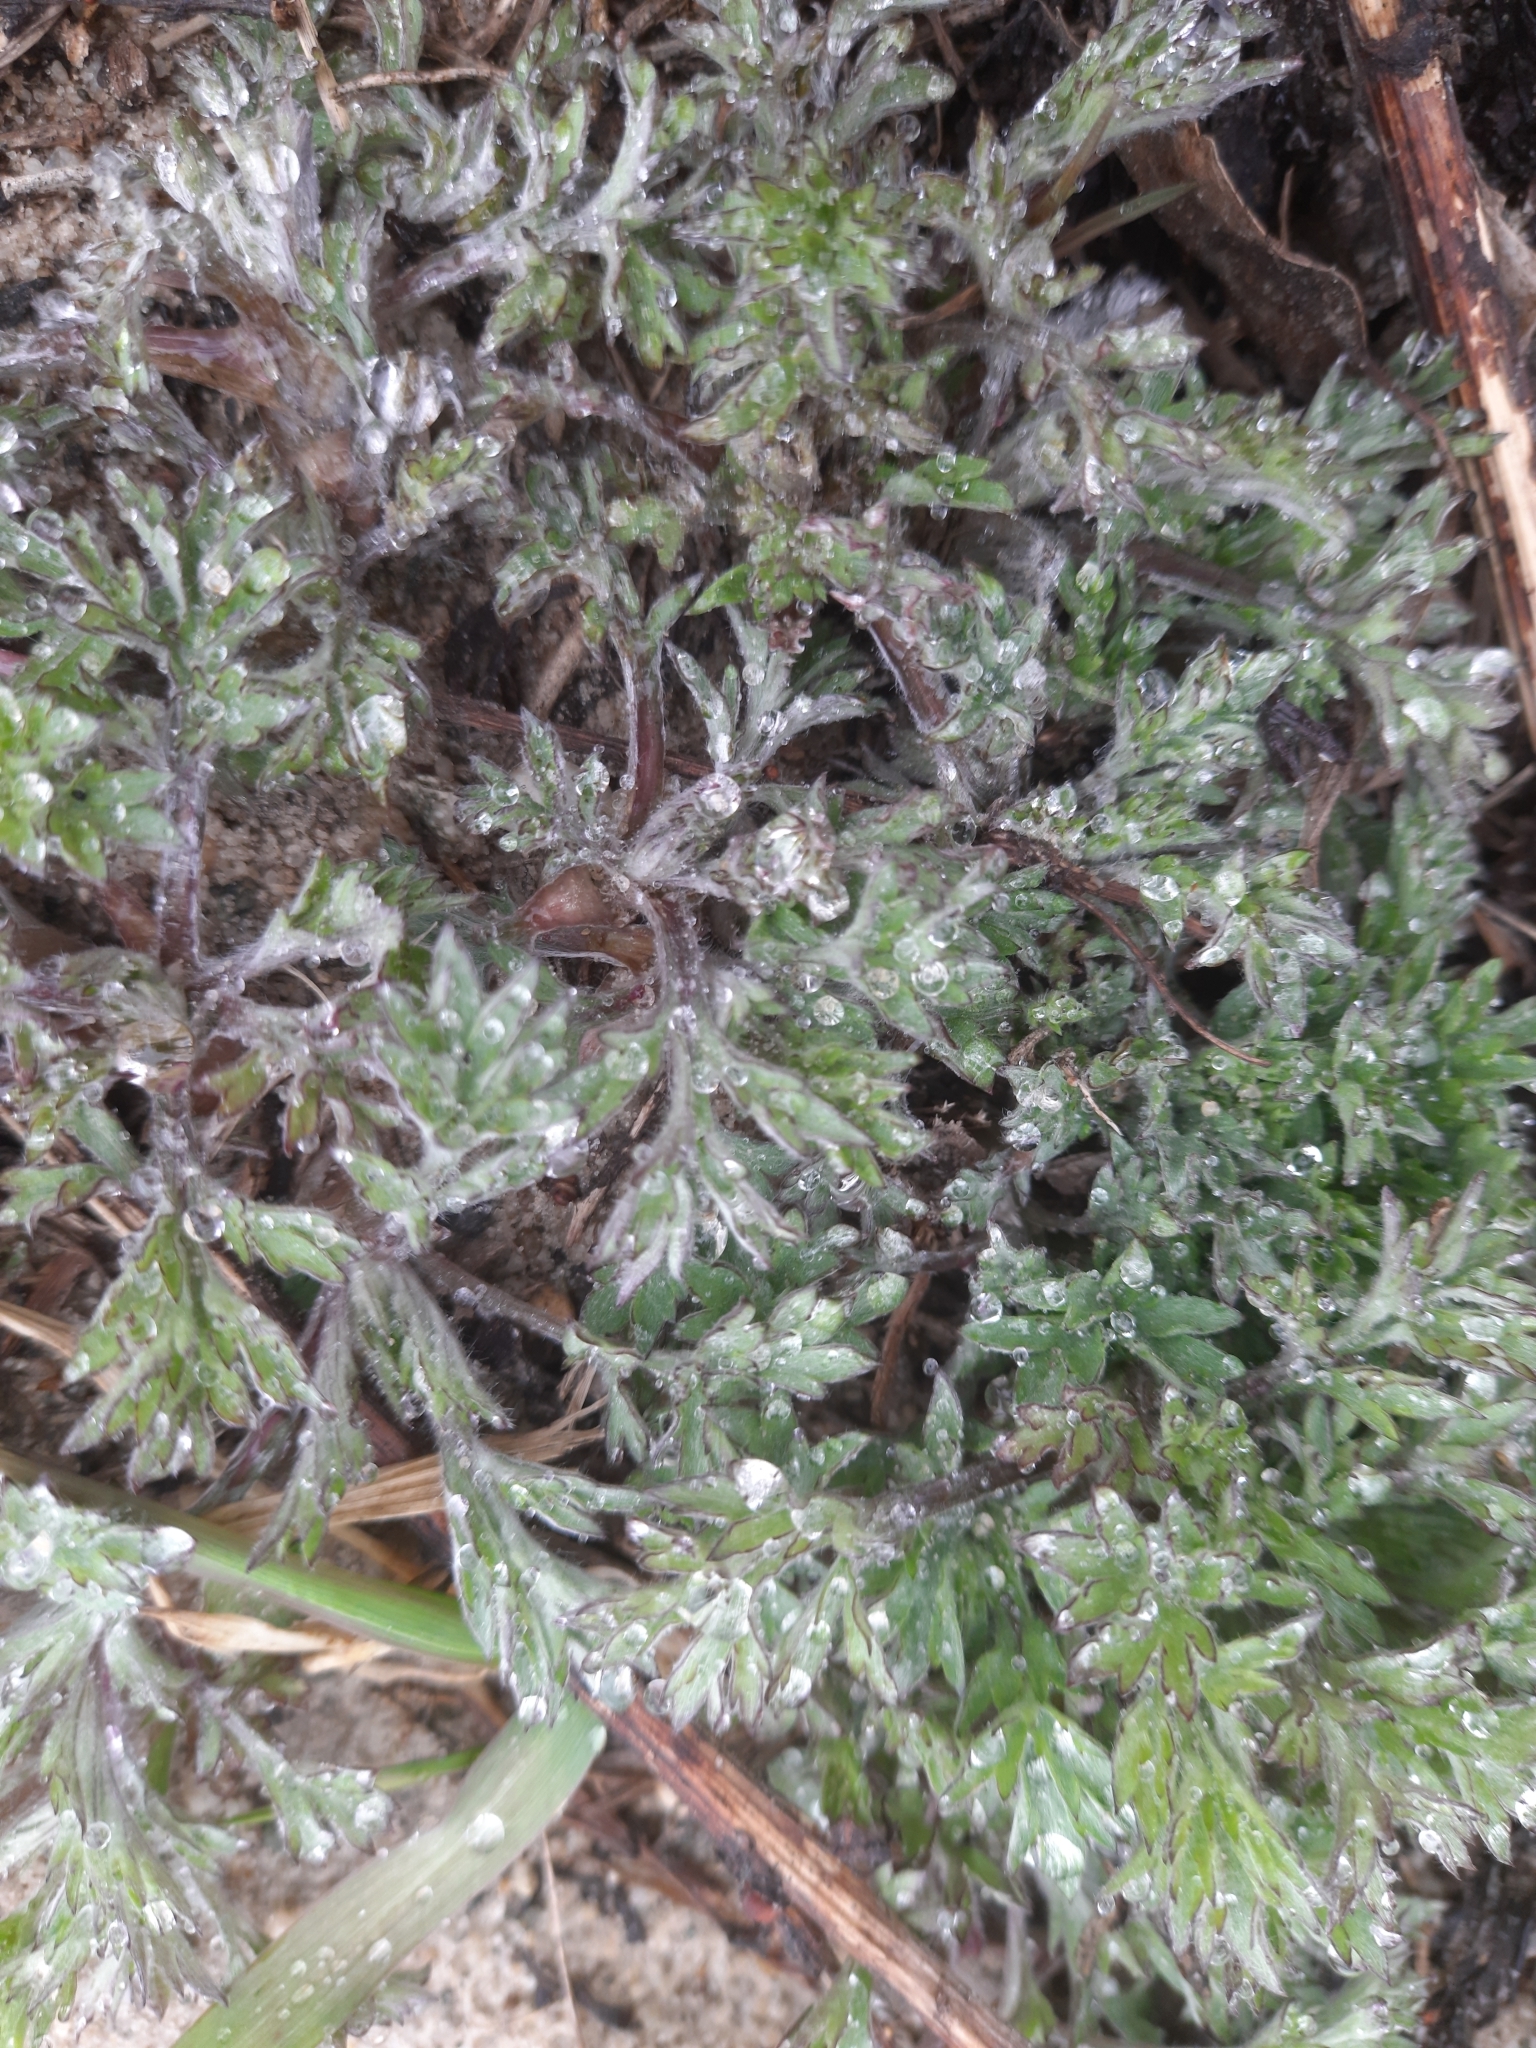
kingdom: Plantae
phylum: Tracheophyta
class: Magnoliopsida
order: Asterales
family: Asteraceae
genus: Artemisia
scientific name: Artemisia vulgaris
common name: Mugwort
